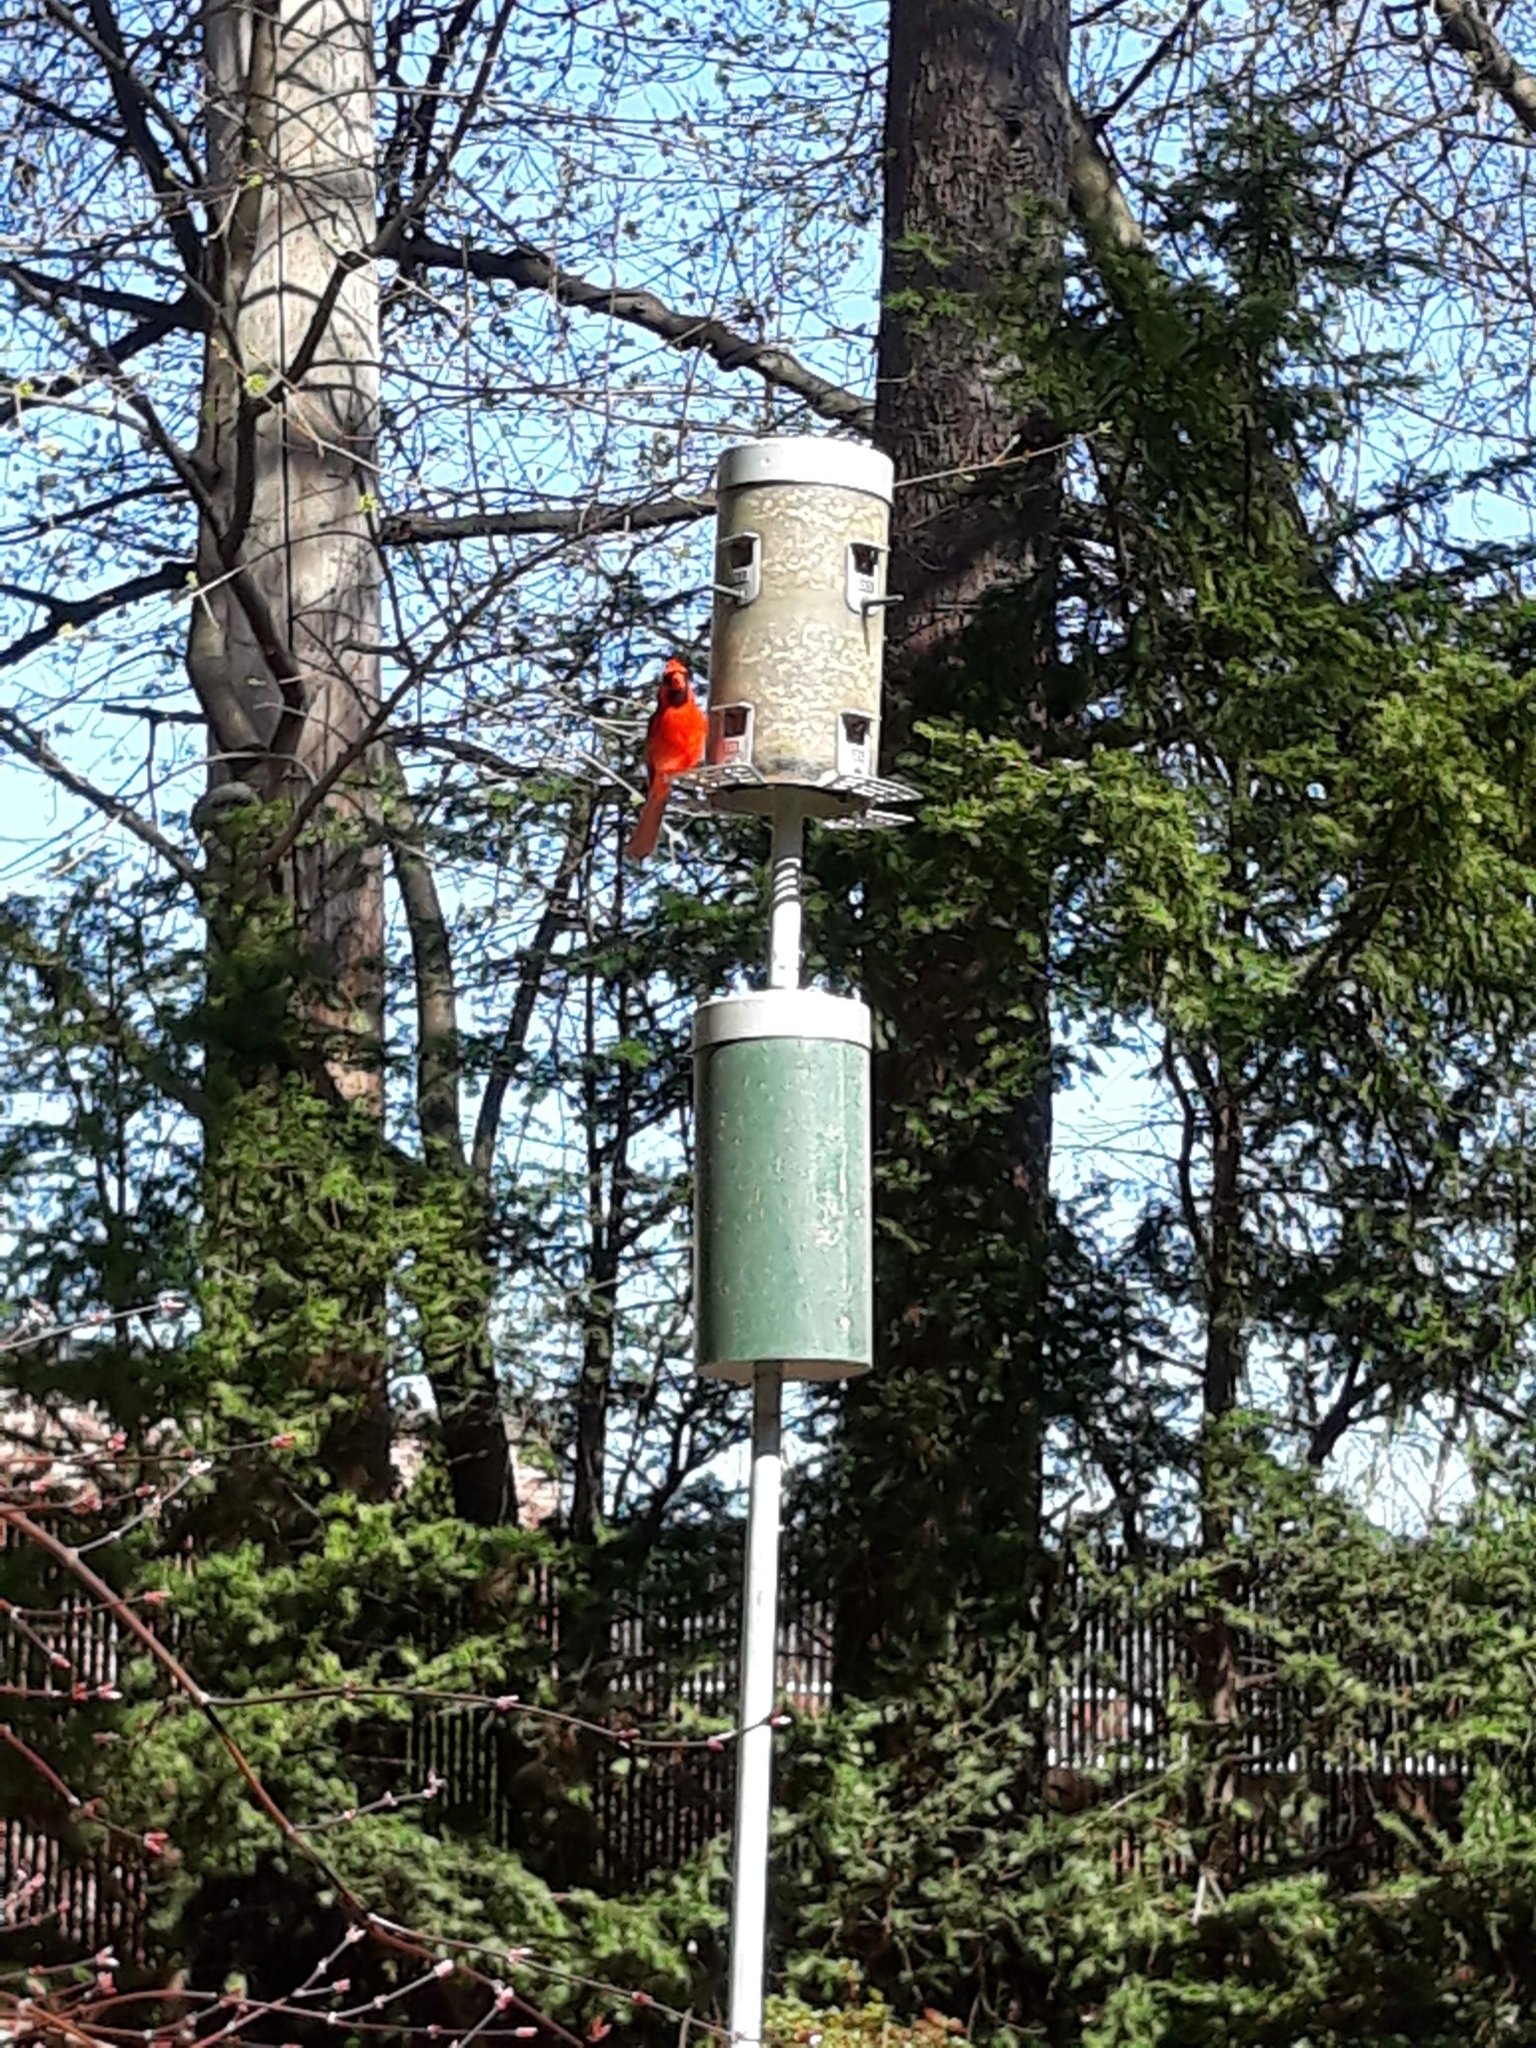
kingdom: Animalia
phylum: Chordata
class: Aves
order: Passeriformes
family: Cardinalidae
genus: Cardinalis
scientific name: Cardinalis cardinalis
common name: Northern cardinal
